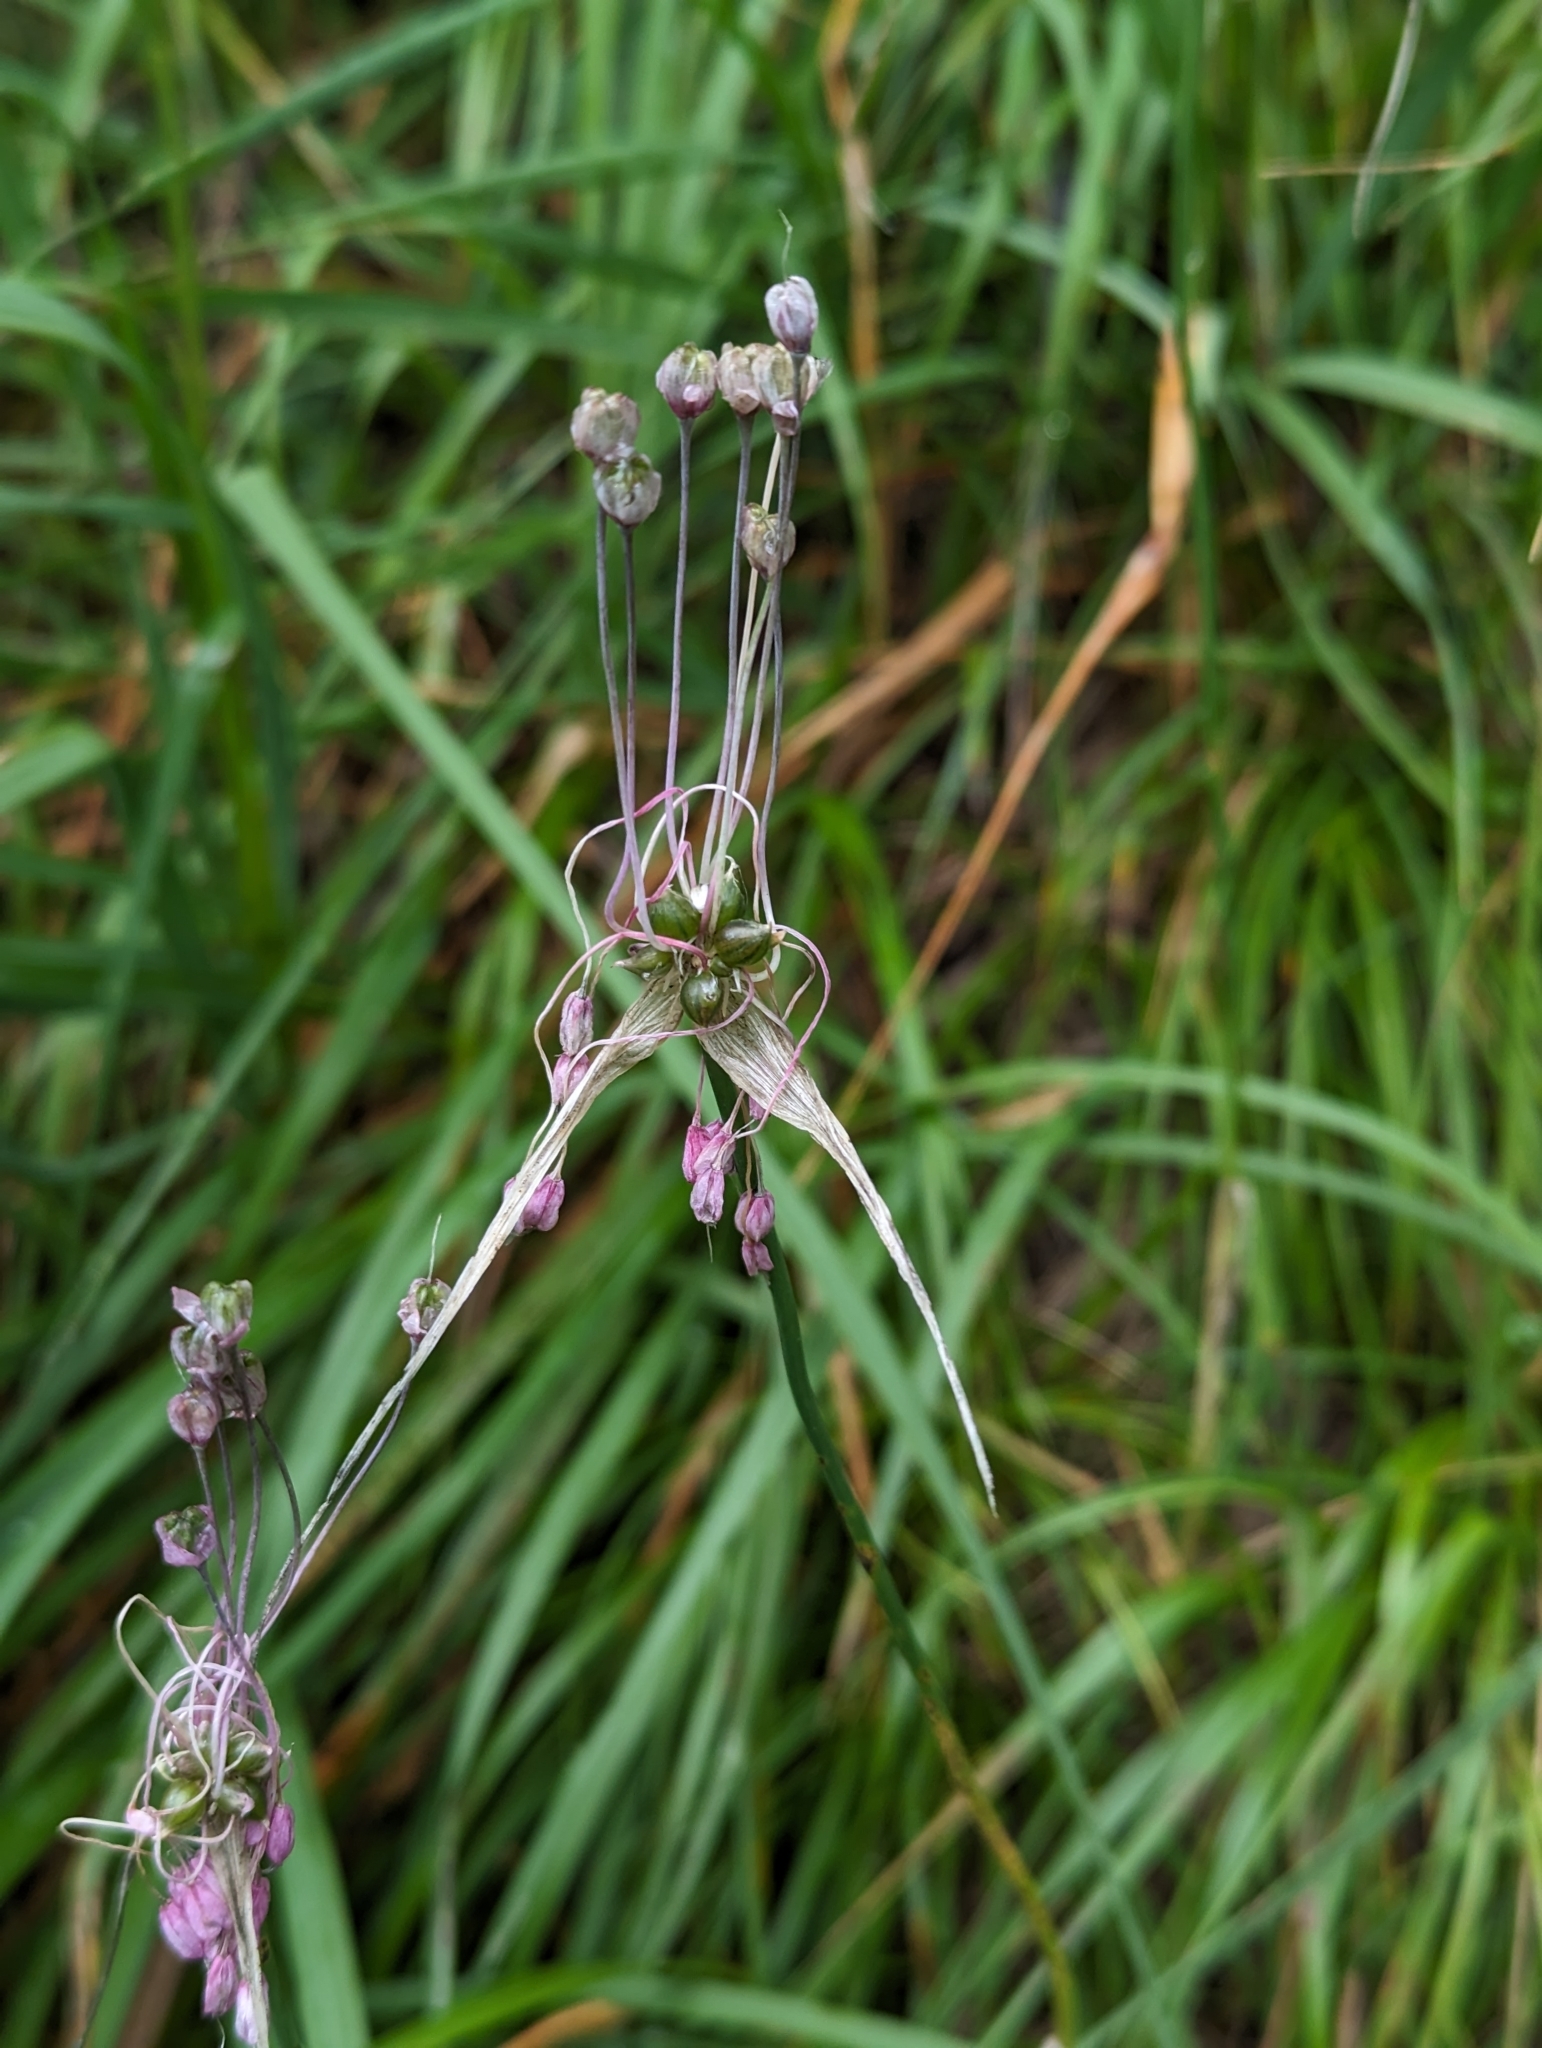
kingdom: Plantae
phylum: Tracheophyta
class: Liliopsida
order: Asparagales
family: Amaryllidaceae
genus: Allium
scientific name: Allium carinatum
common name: Keeled garlic
